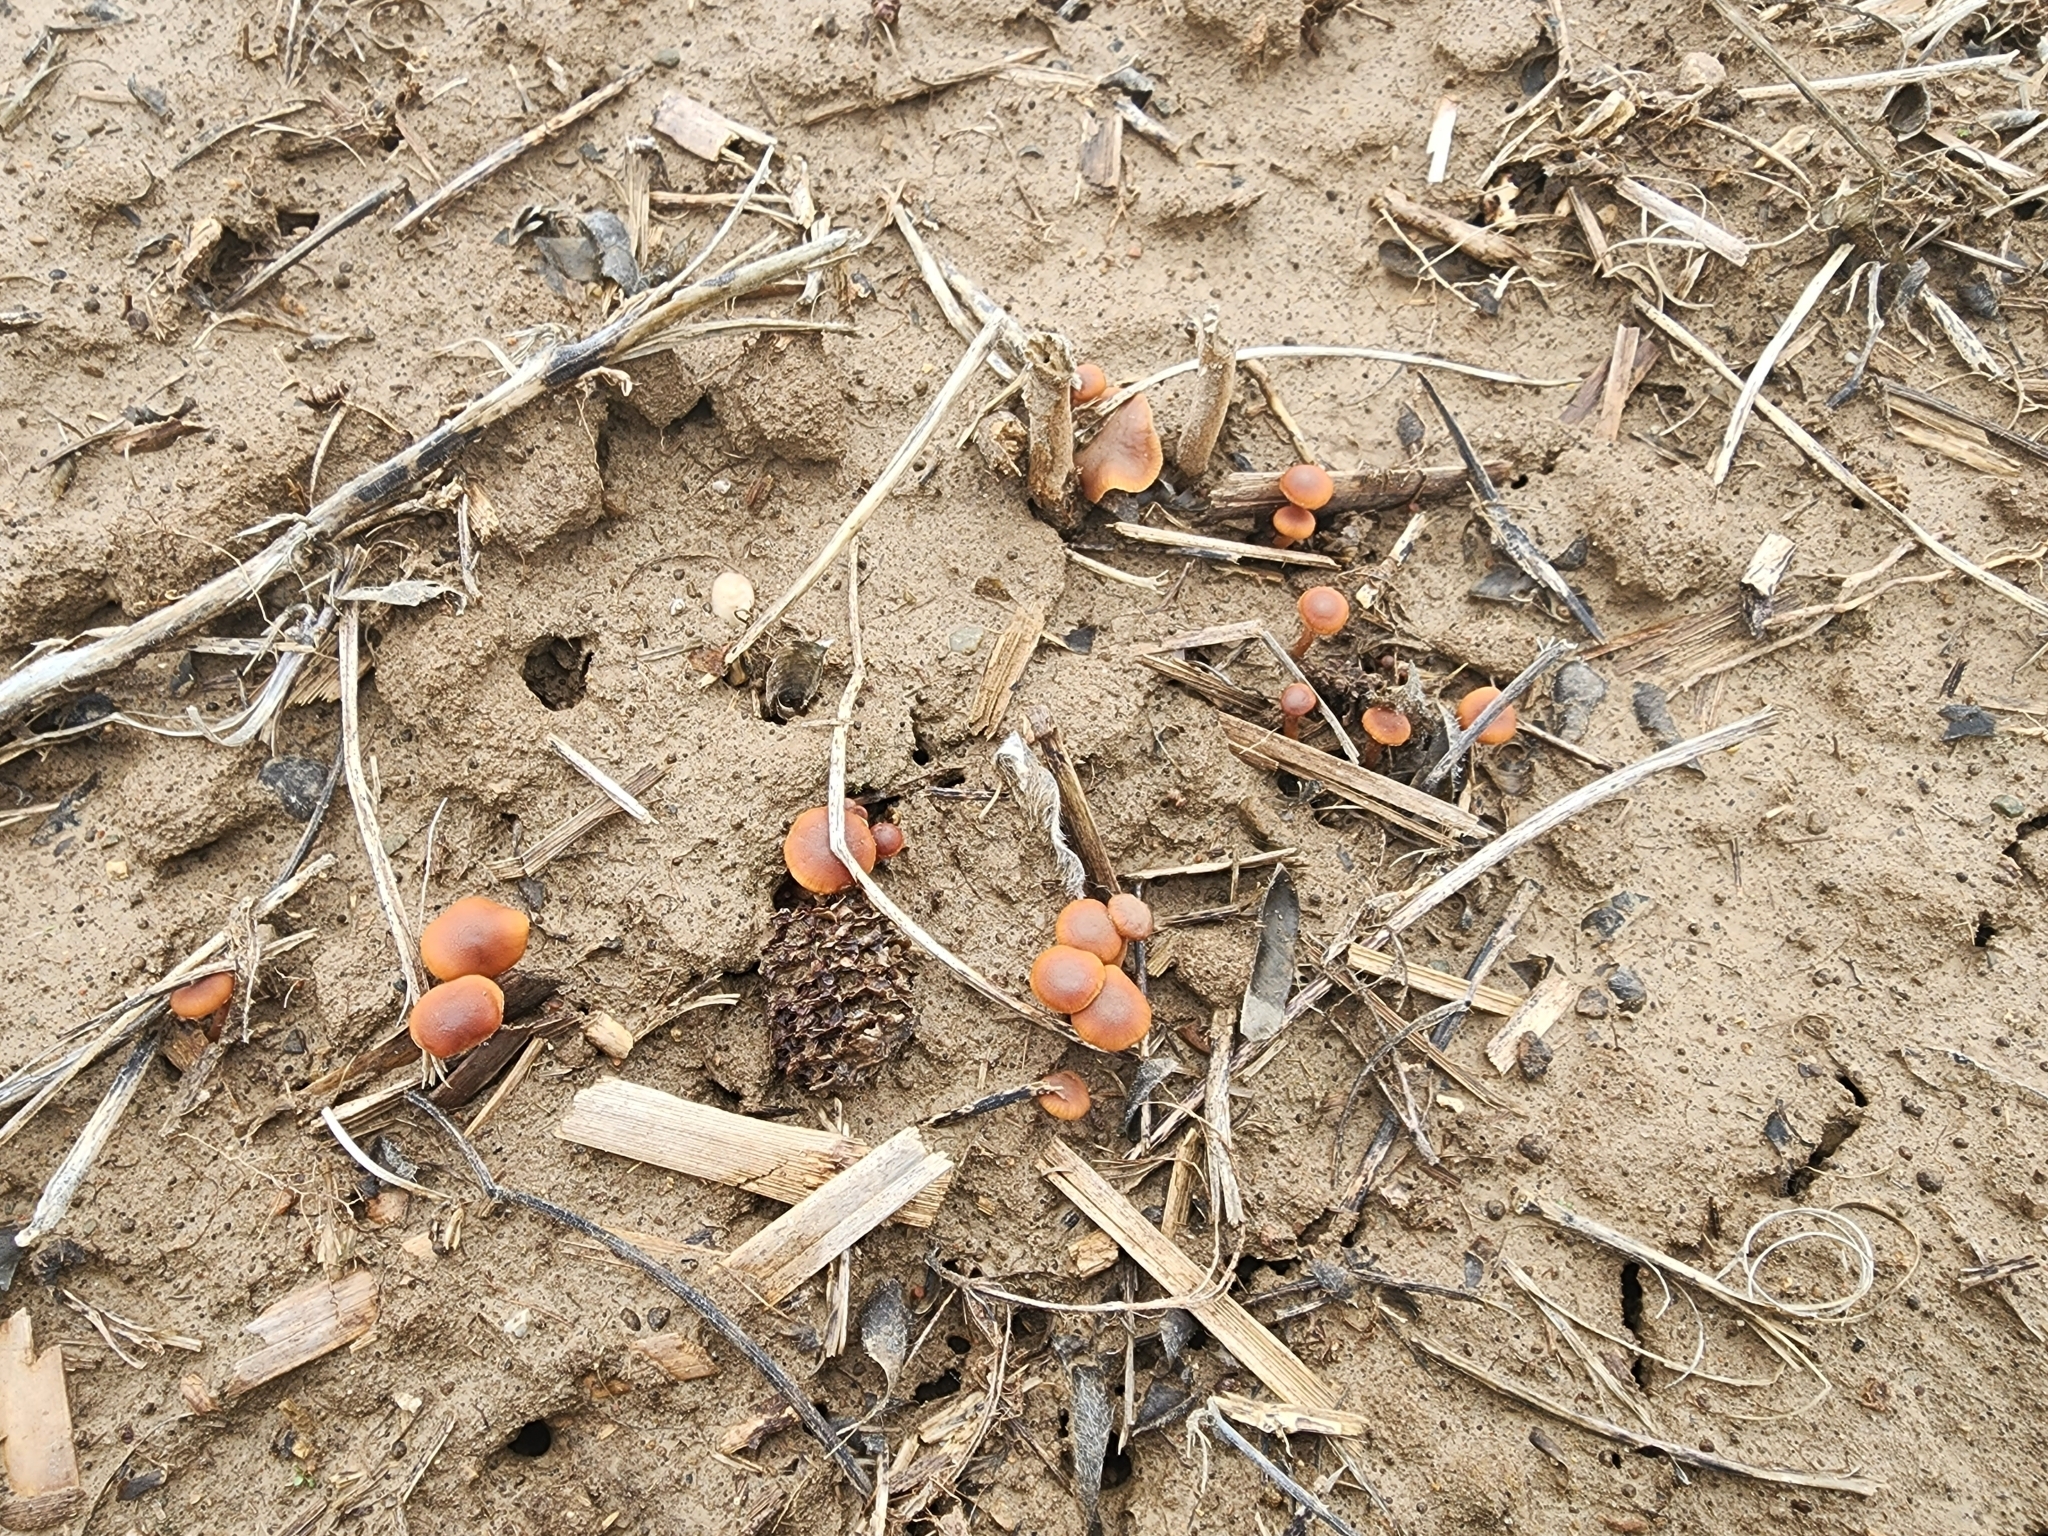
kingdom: Fungi
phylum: Basidiomycota
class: Agaricomycetes
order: Agaricales
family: Tubariaceae
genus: Tubaria
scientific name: Tubaria furfuracea
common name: Scurfy twiglet
